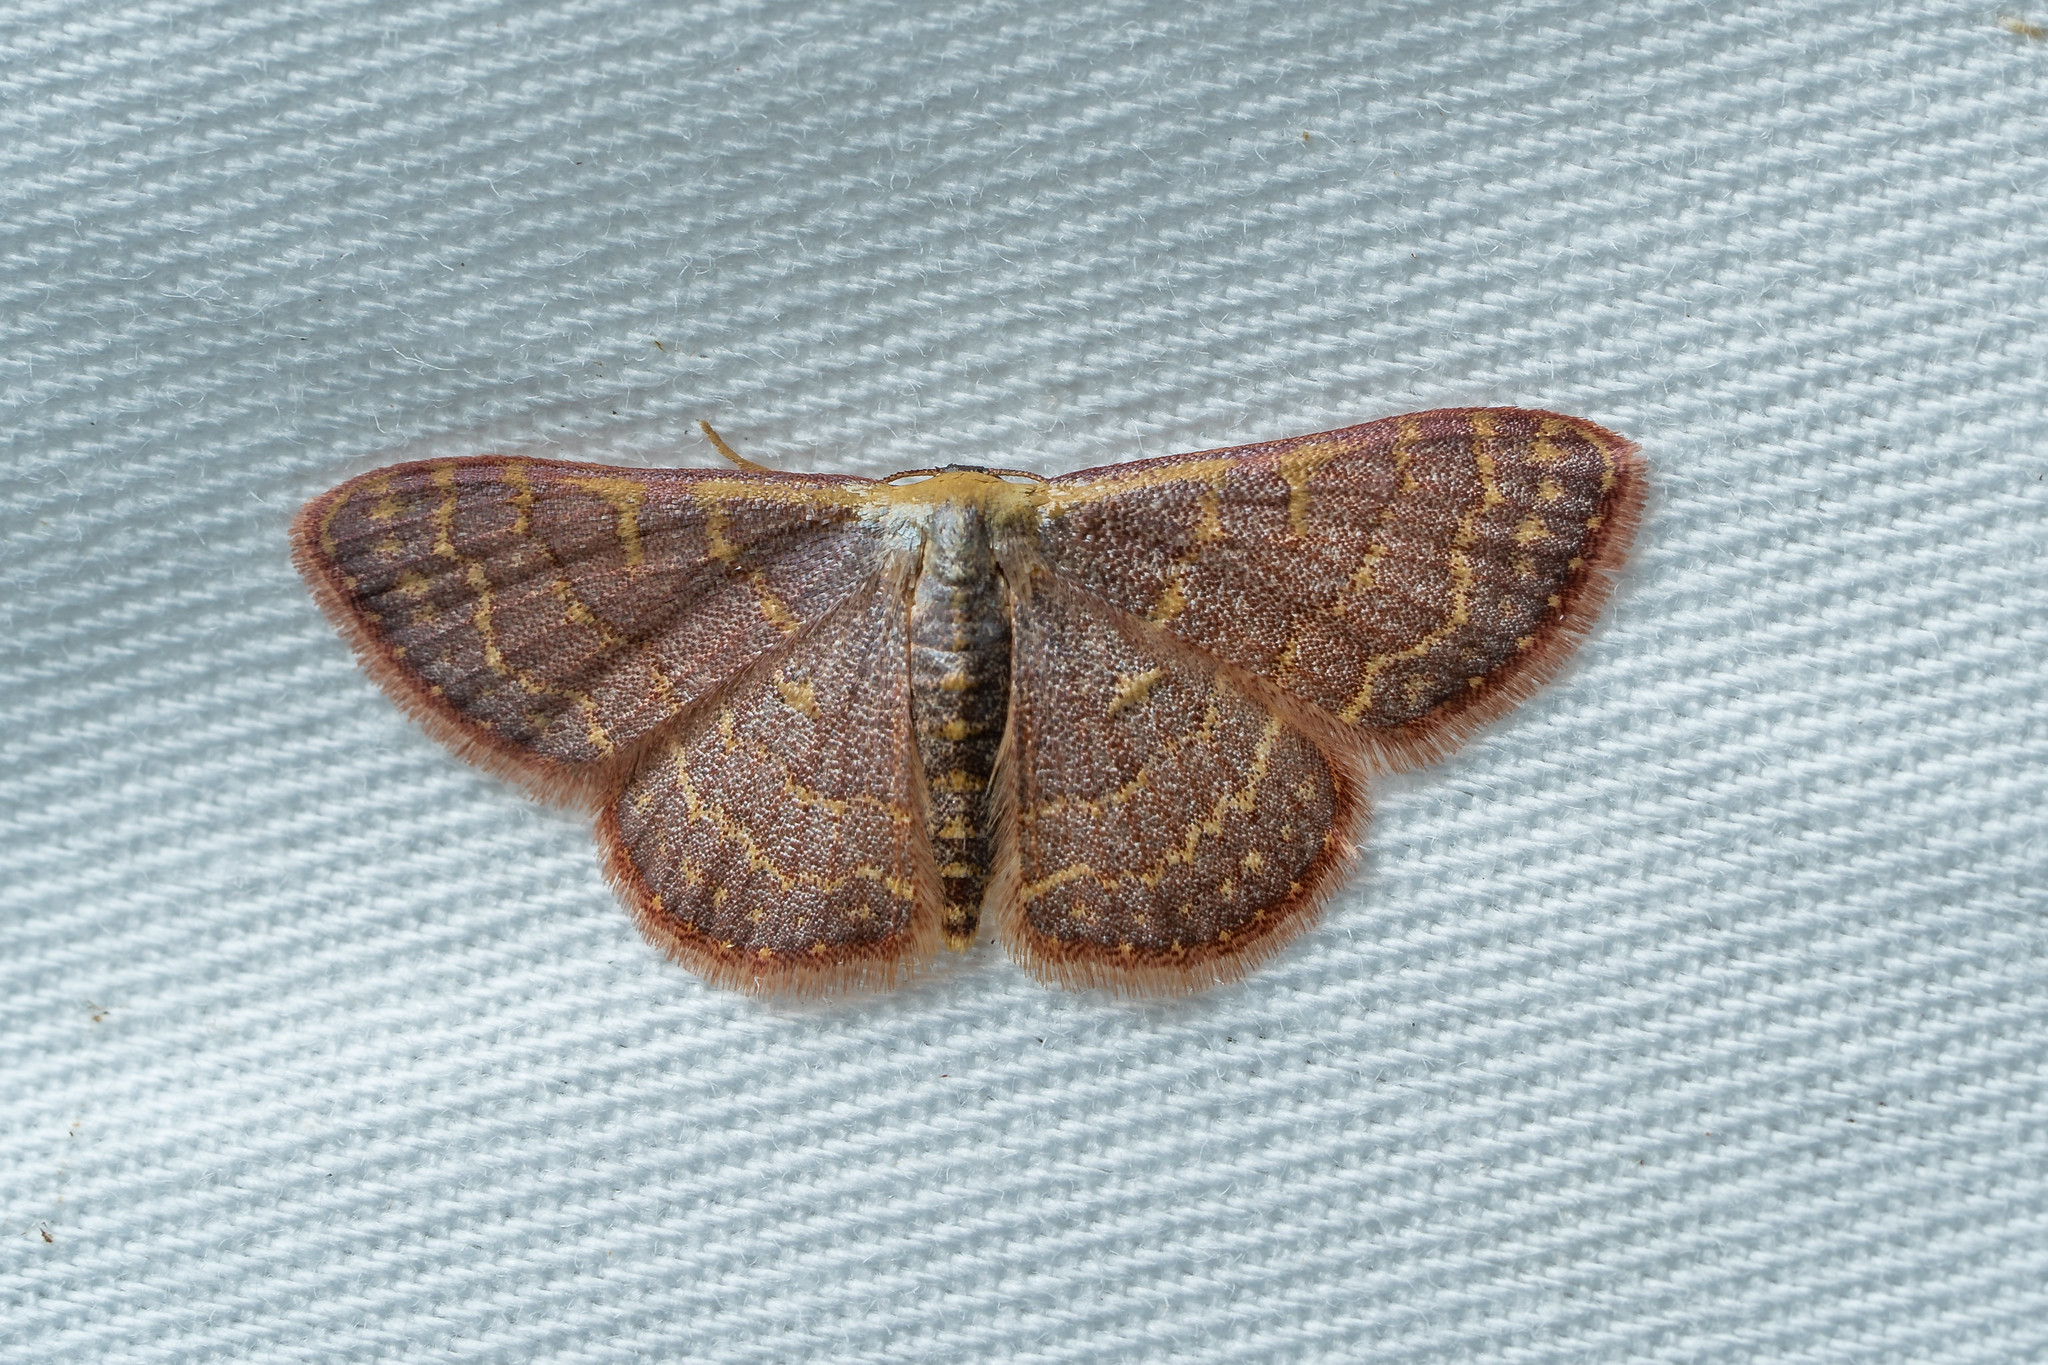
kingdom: Animalia
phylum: Arthropoda
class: Insecta
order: Lepidoptera
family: Geometridae
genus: Leptostales
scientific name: Leptostales pannaria
